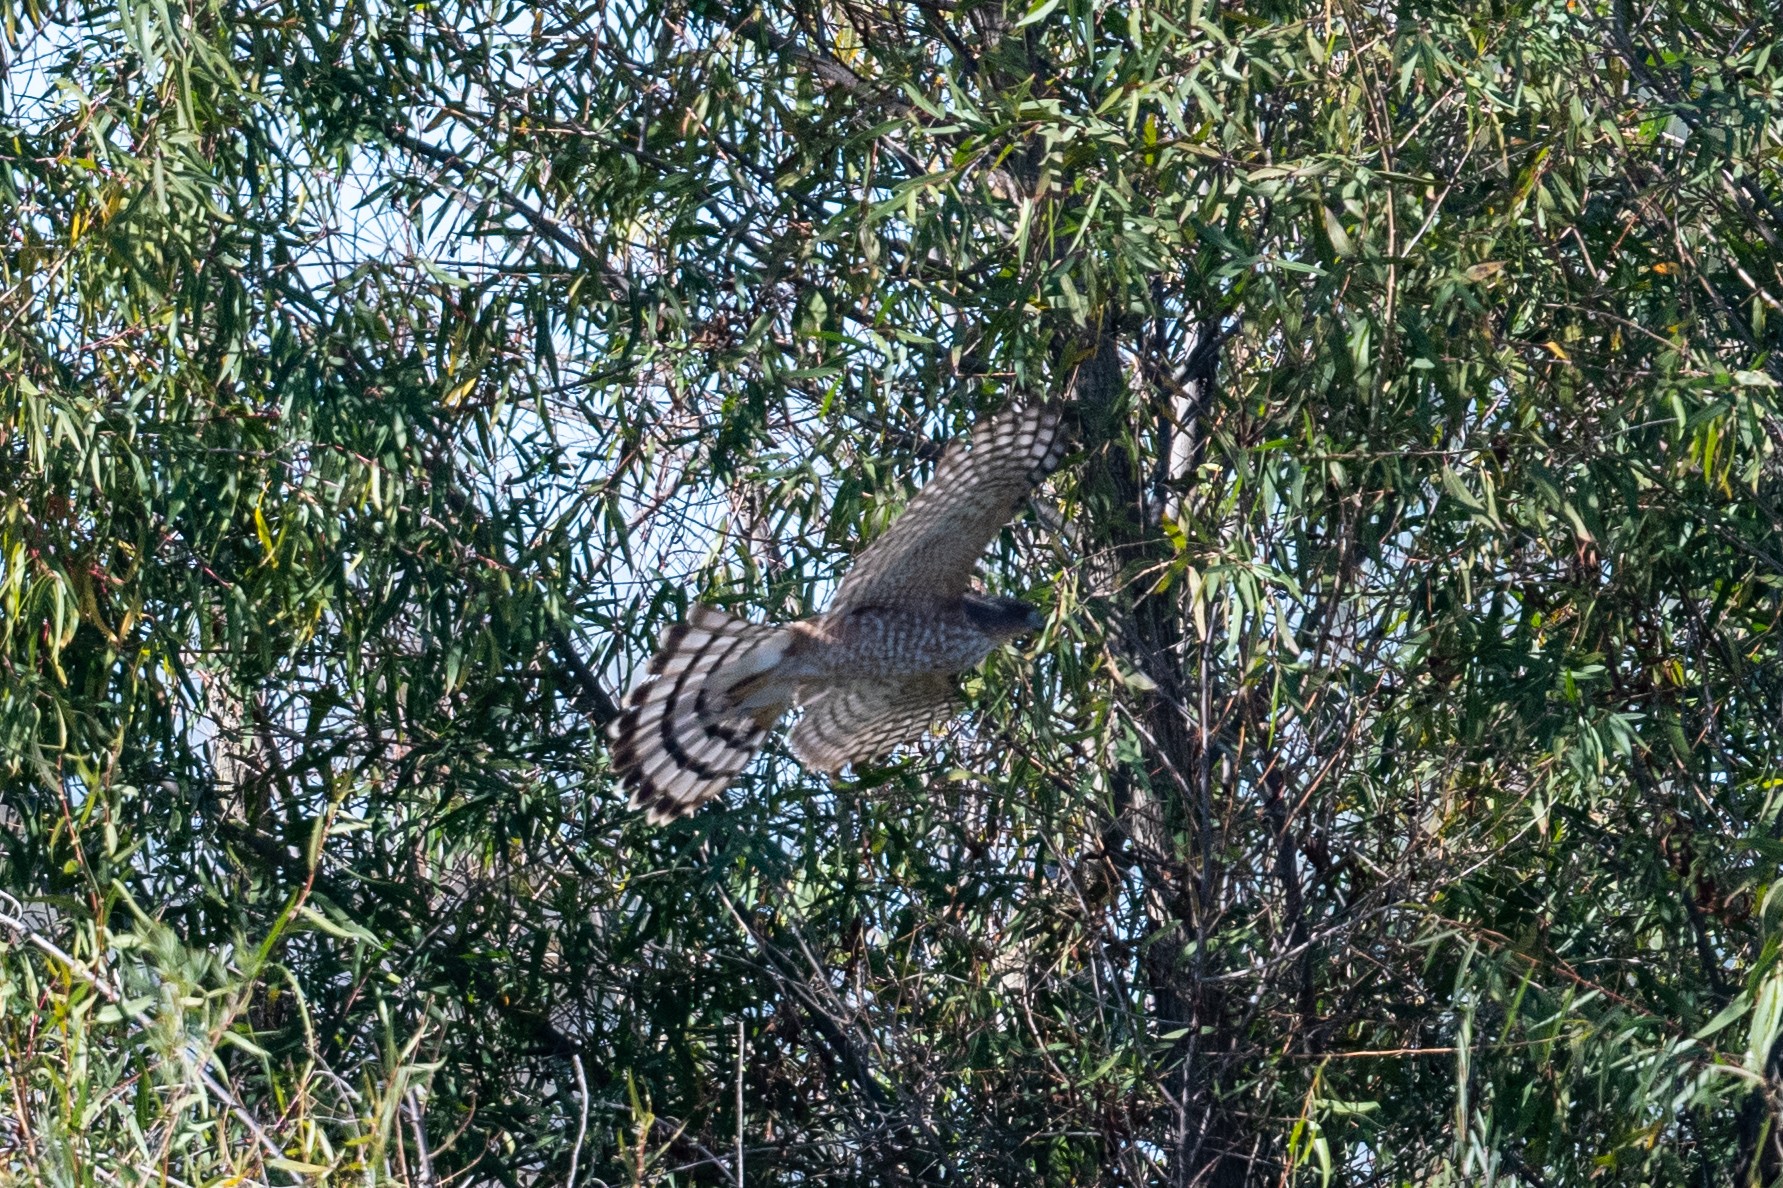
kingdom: Animalia
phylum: Chordata
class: Aves
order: Accipitriformes
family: Accipitridae
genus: Accipiter
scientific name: Accipiter cooperii
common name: Cooper's hawk
